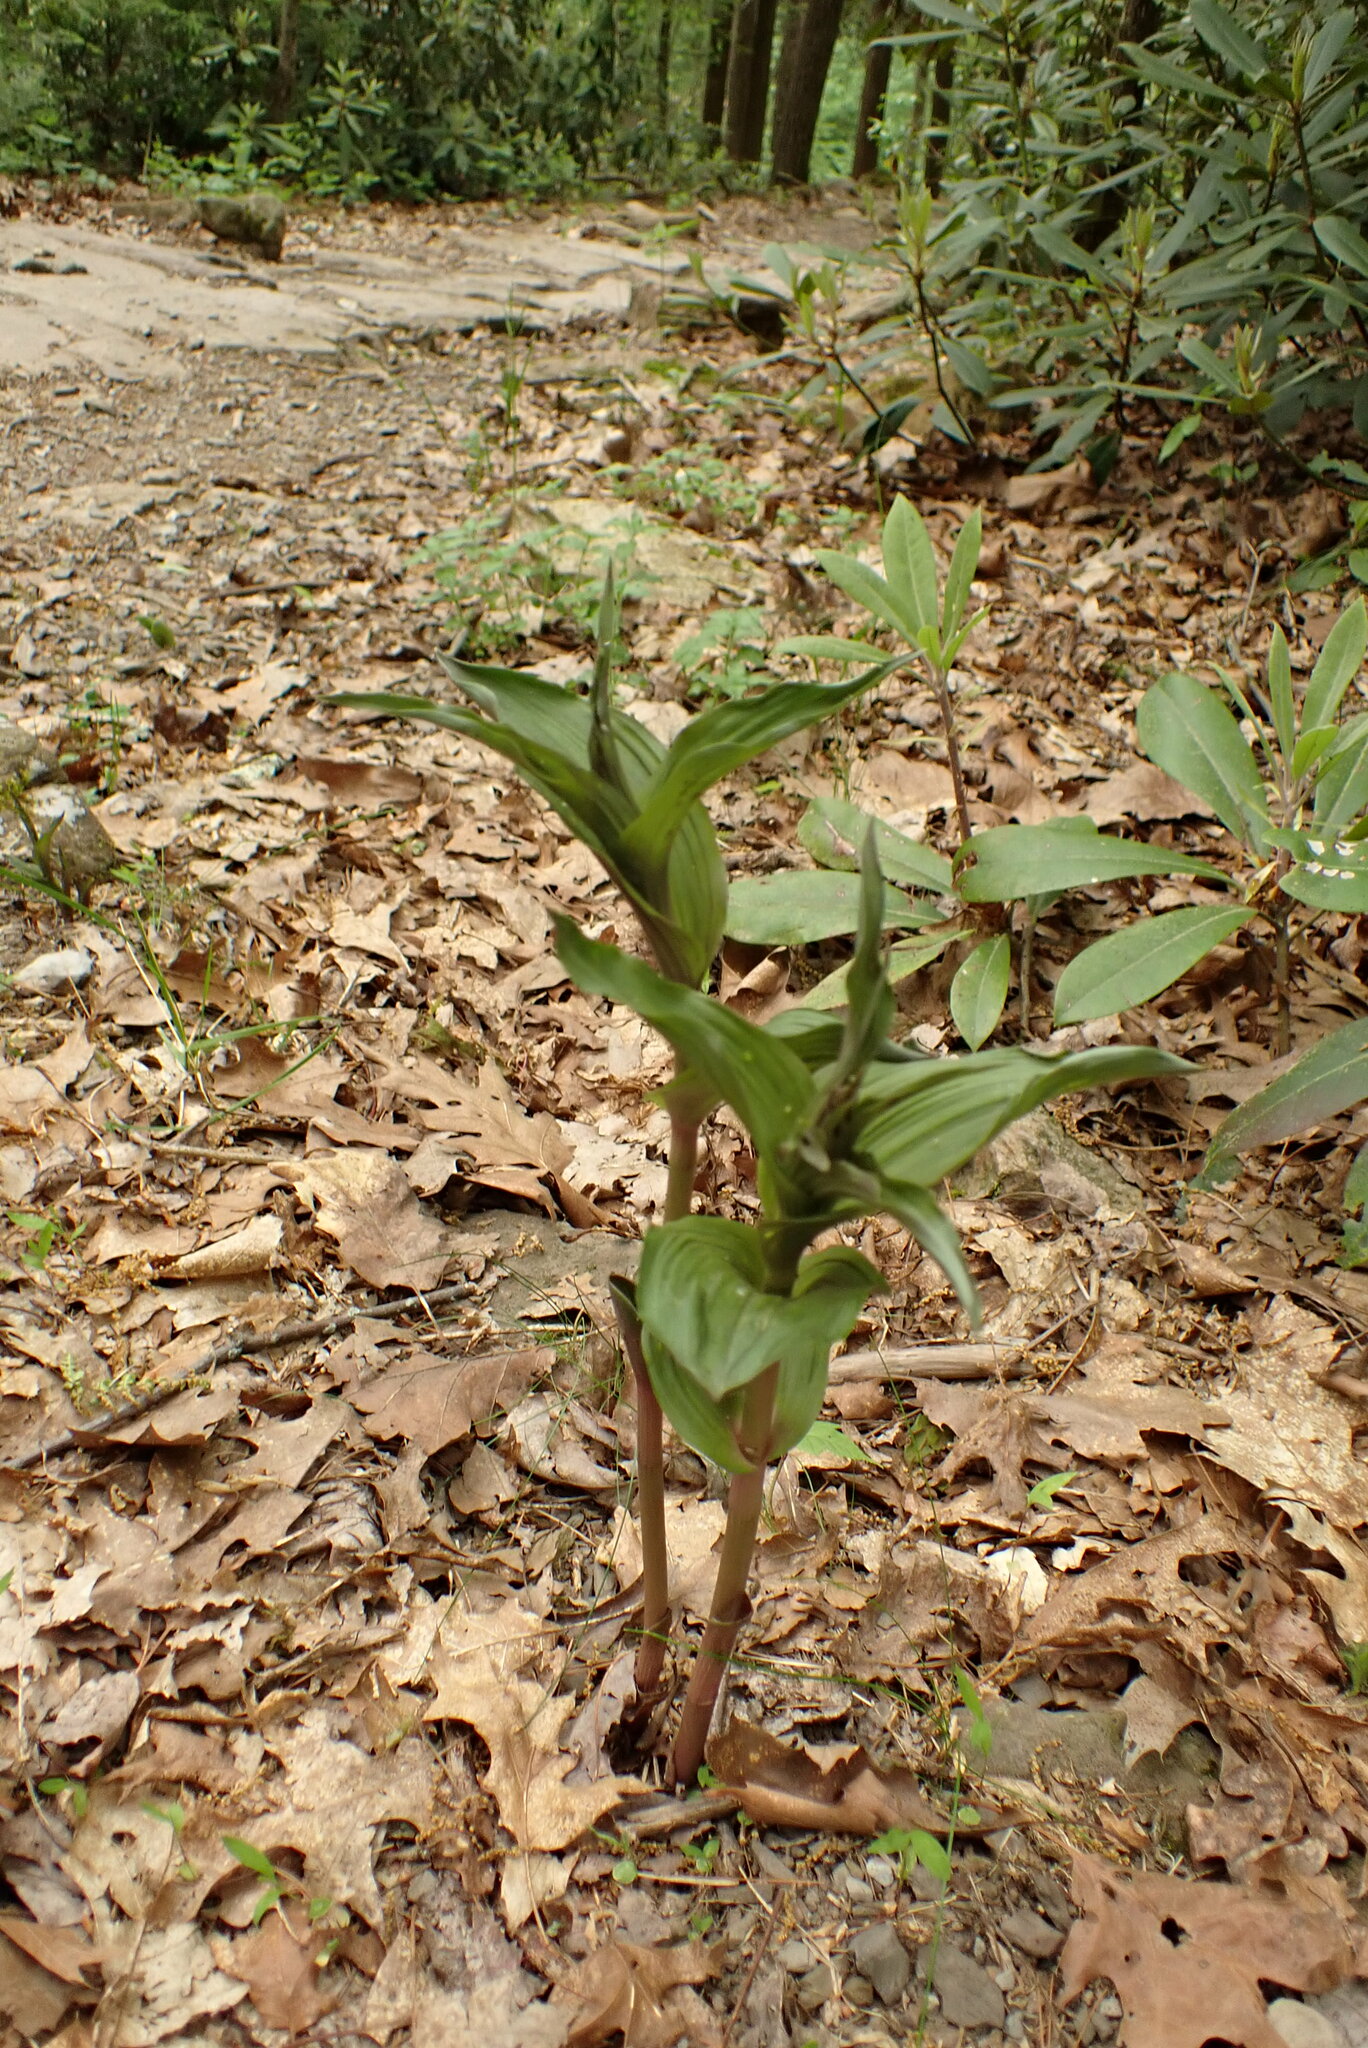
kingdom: Plantae
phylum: Tracheophyta
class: Liliopsida
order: Asparagales
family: Orchidaceae
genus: Epipactis
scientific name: Epipactis helleborine
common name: Broad-leaved helleborine
